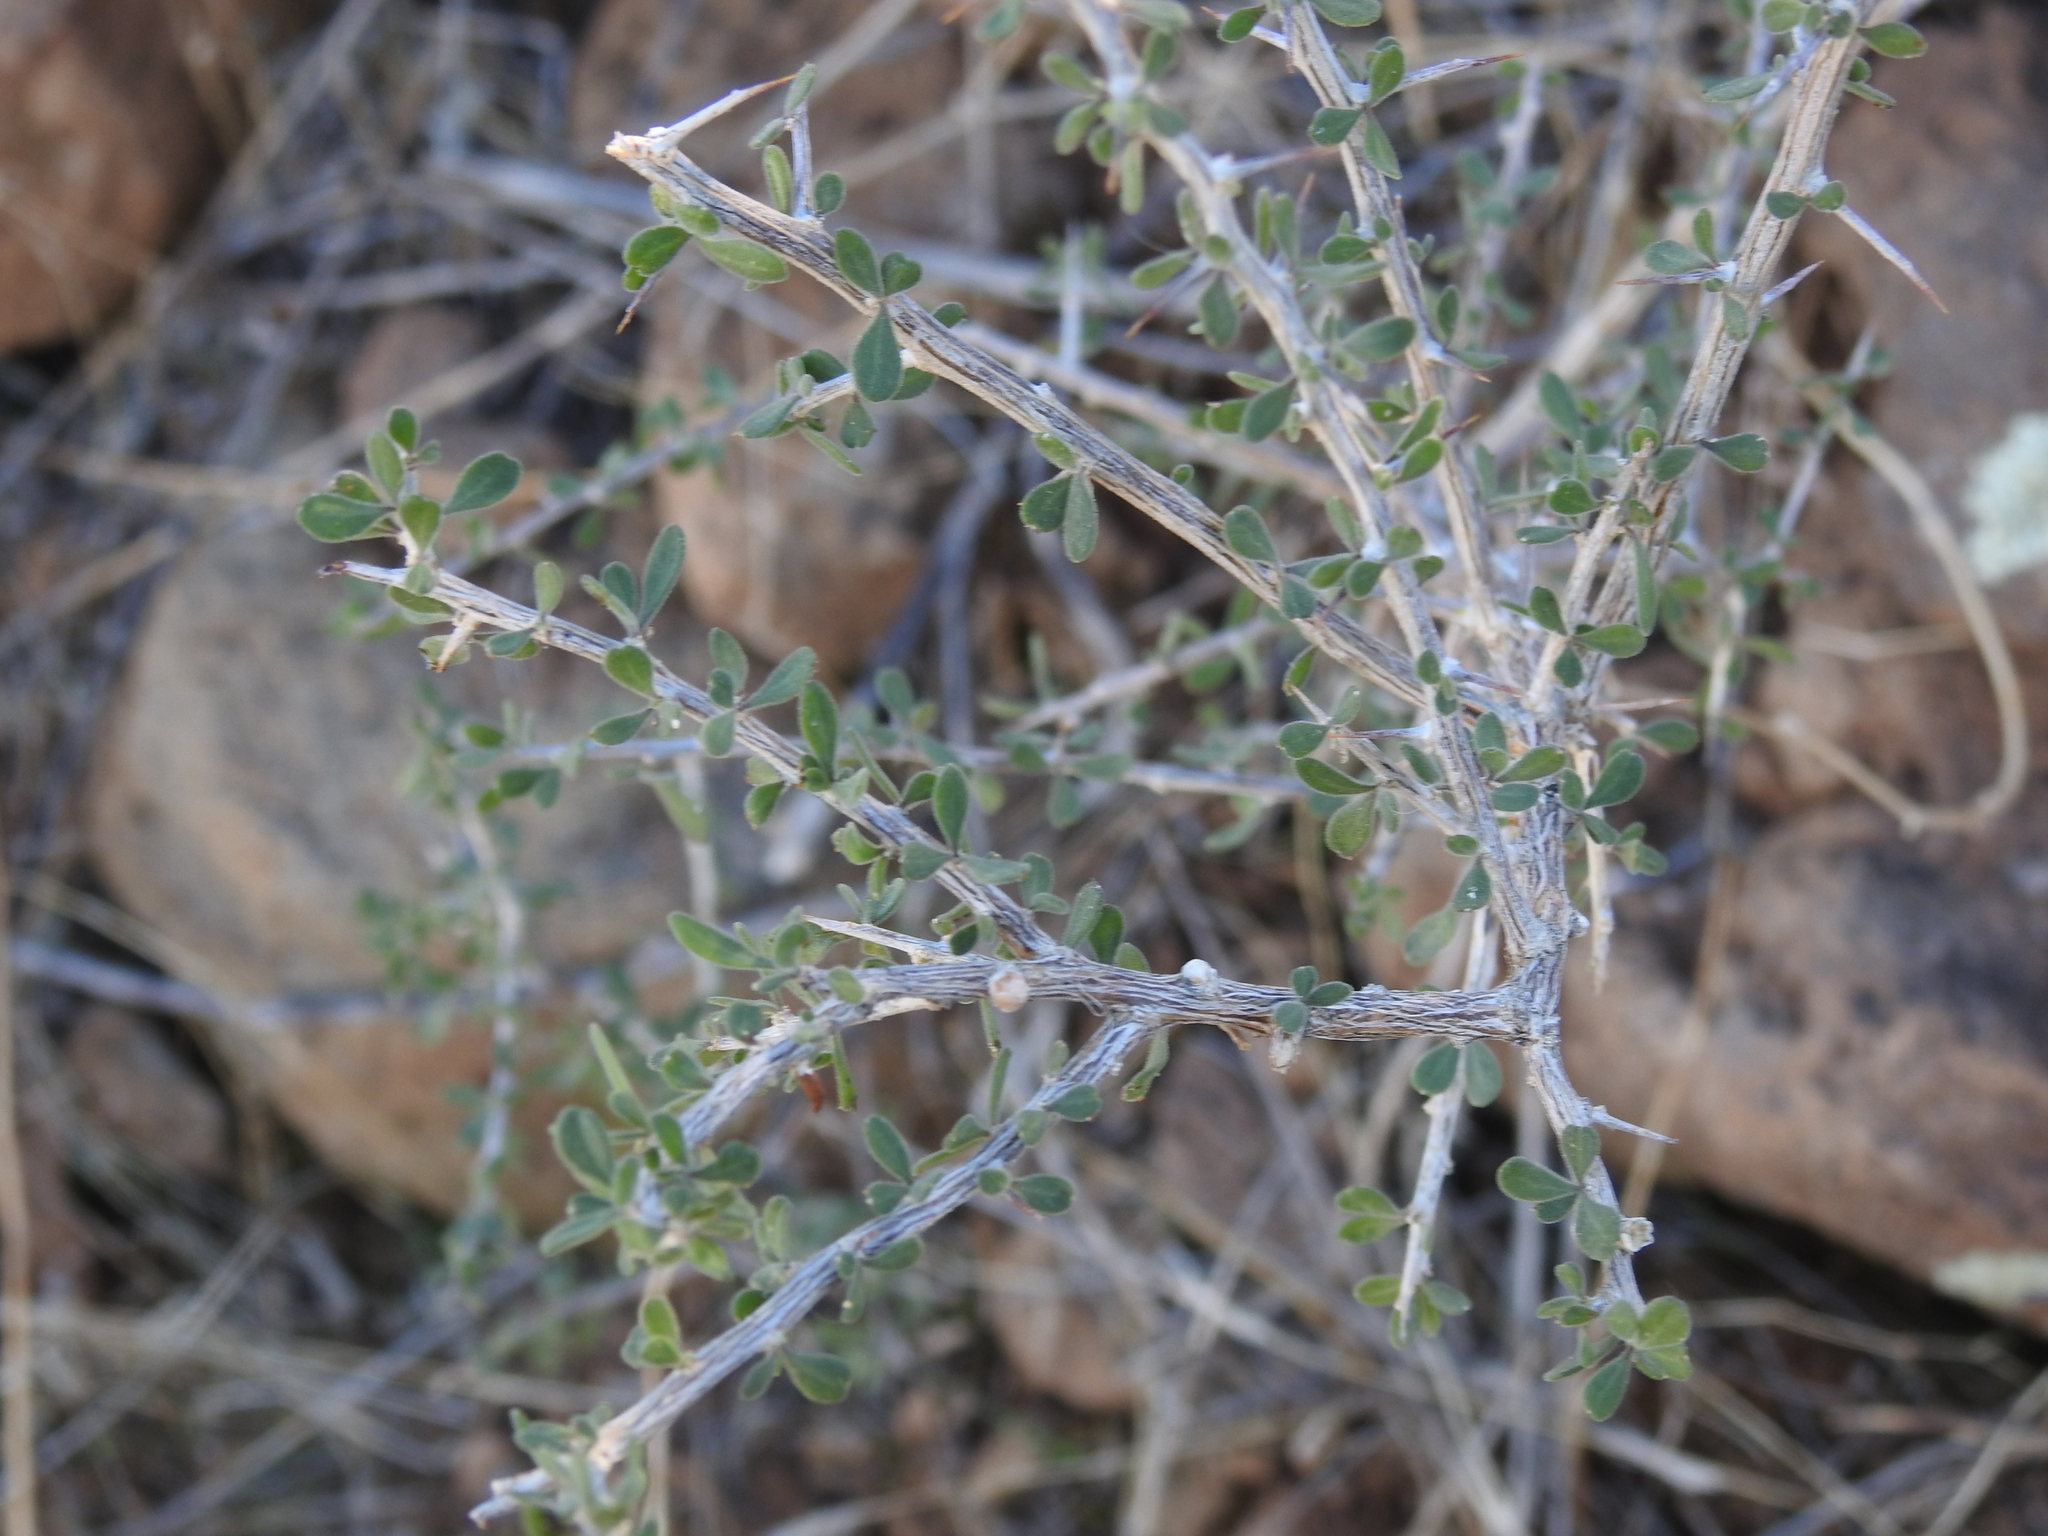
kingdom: Plantae
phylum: Tracheophyta
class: Magnoliopsida
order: Solanales
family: Solanaceae
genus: Lycium
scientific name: Lycium exsertum
